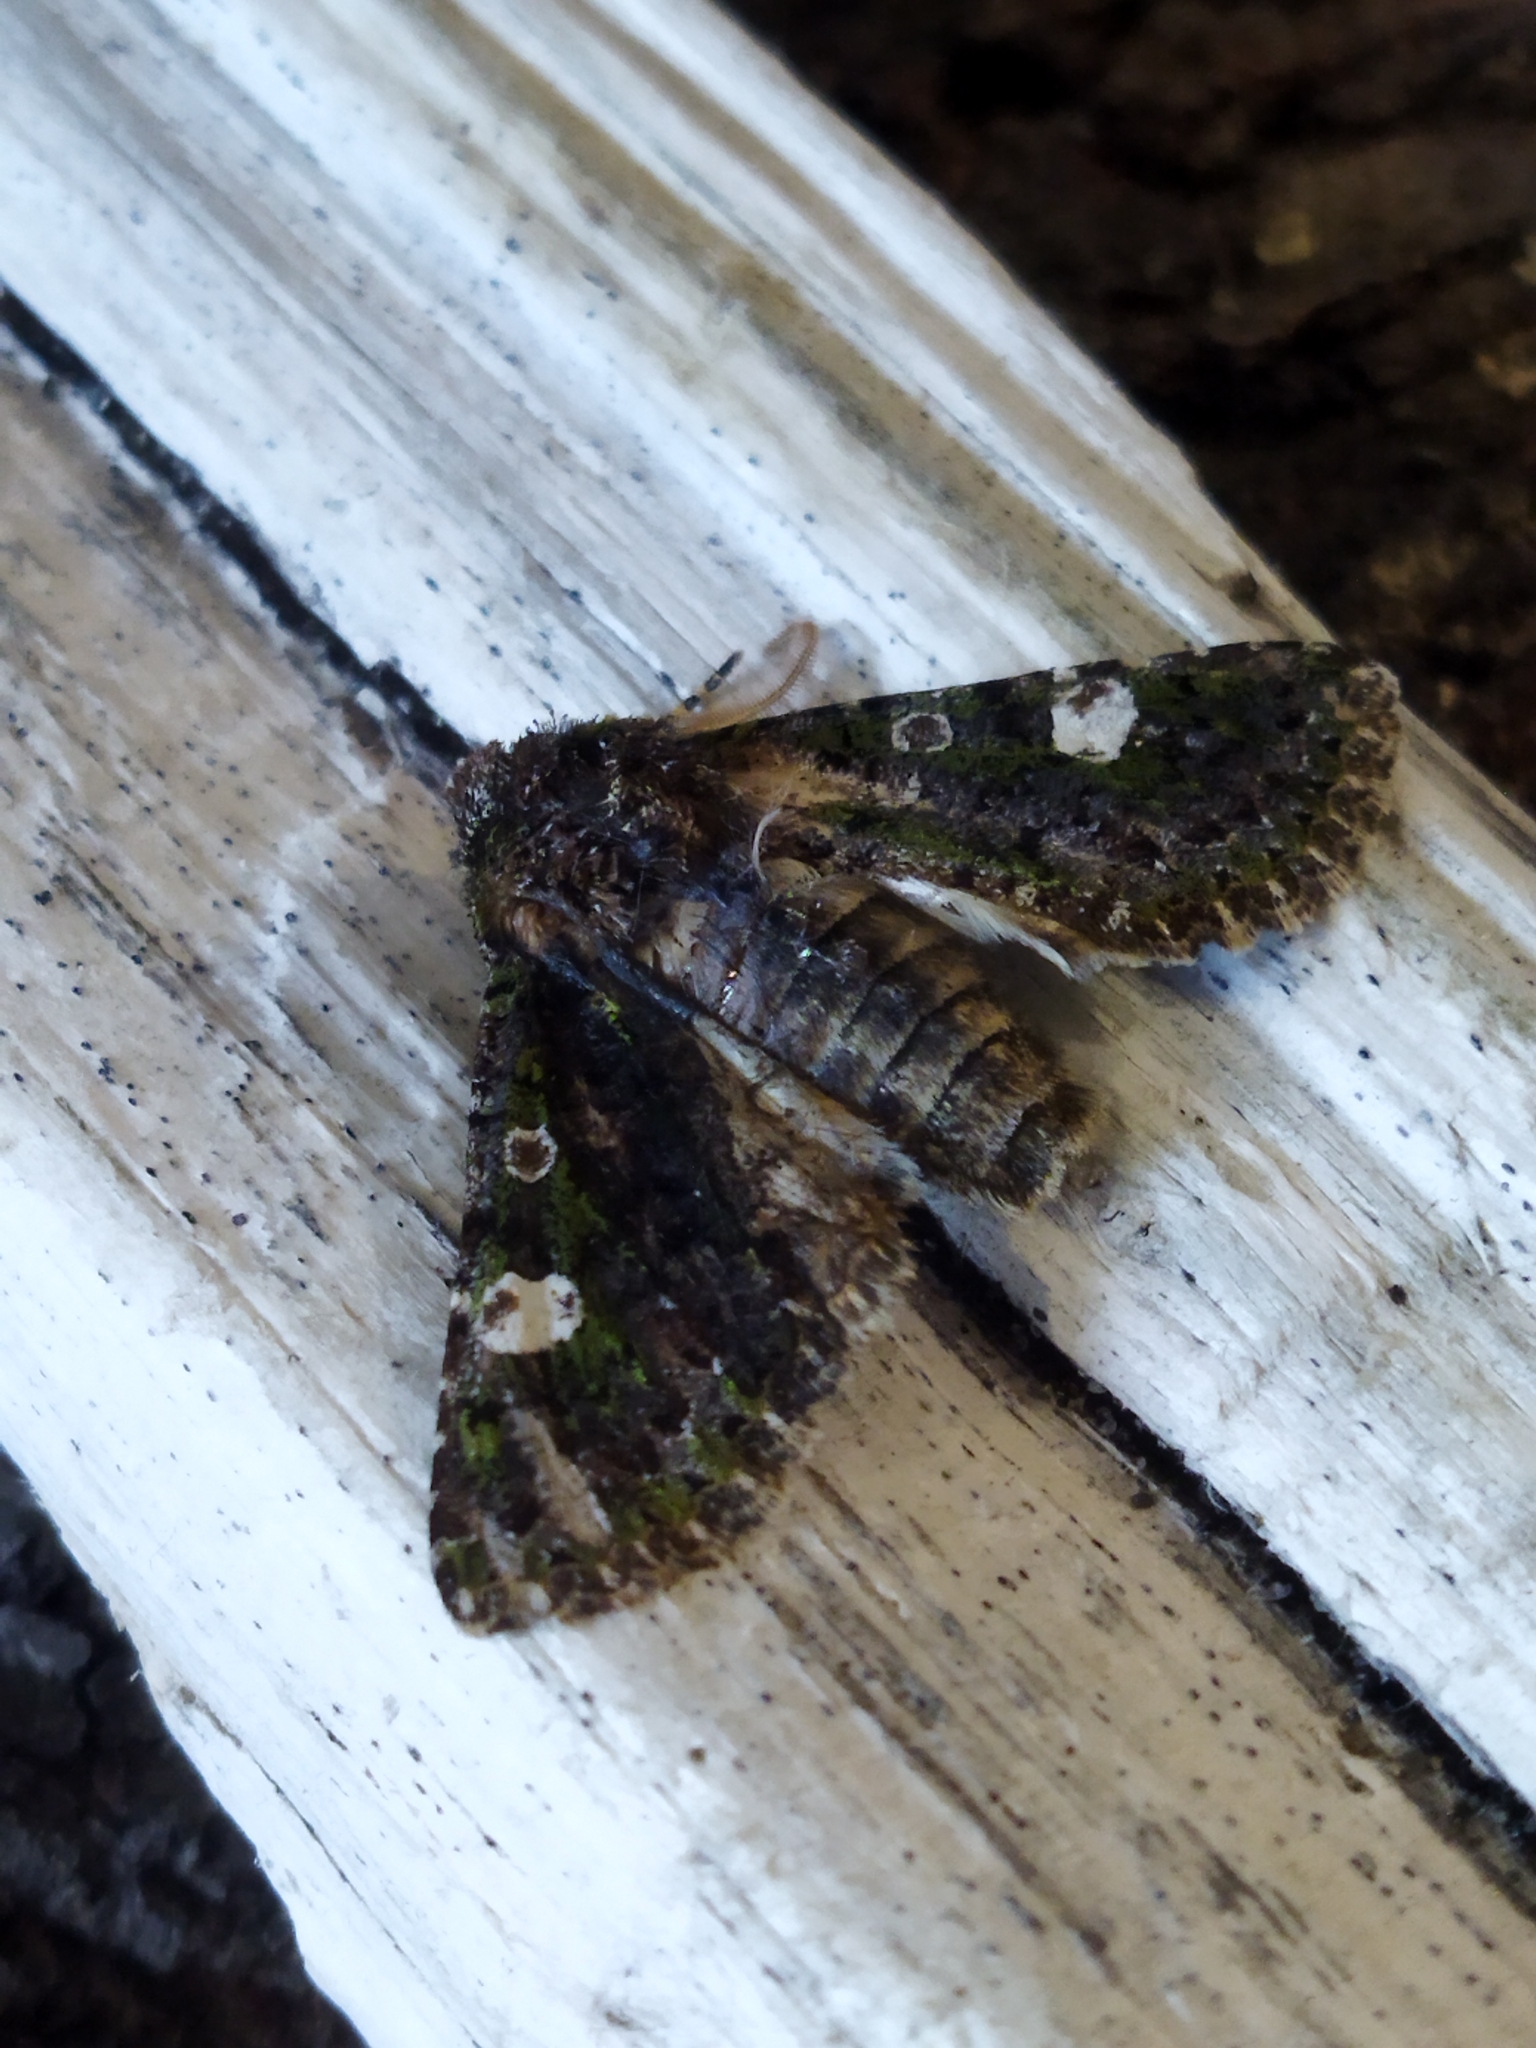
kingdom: Animalia
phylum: Arthropoda
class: Insecta
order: Lepidoptera
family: Noctuidae
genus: Valeria
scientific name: Valeria oleagina
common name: Green-brindled dot
